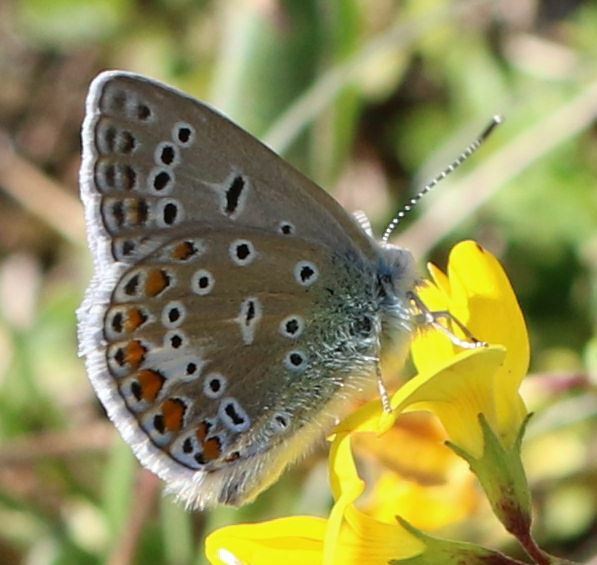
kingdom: Animalia
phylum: Arthropoda
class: Insecta
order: Lepidoptera
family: Lycaenidae
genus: Polyommatus
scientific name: Polyommatus icarus
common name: Common blue
